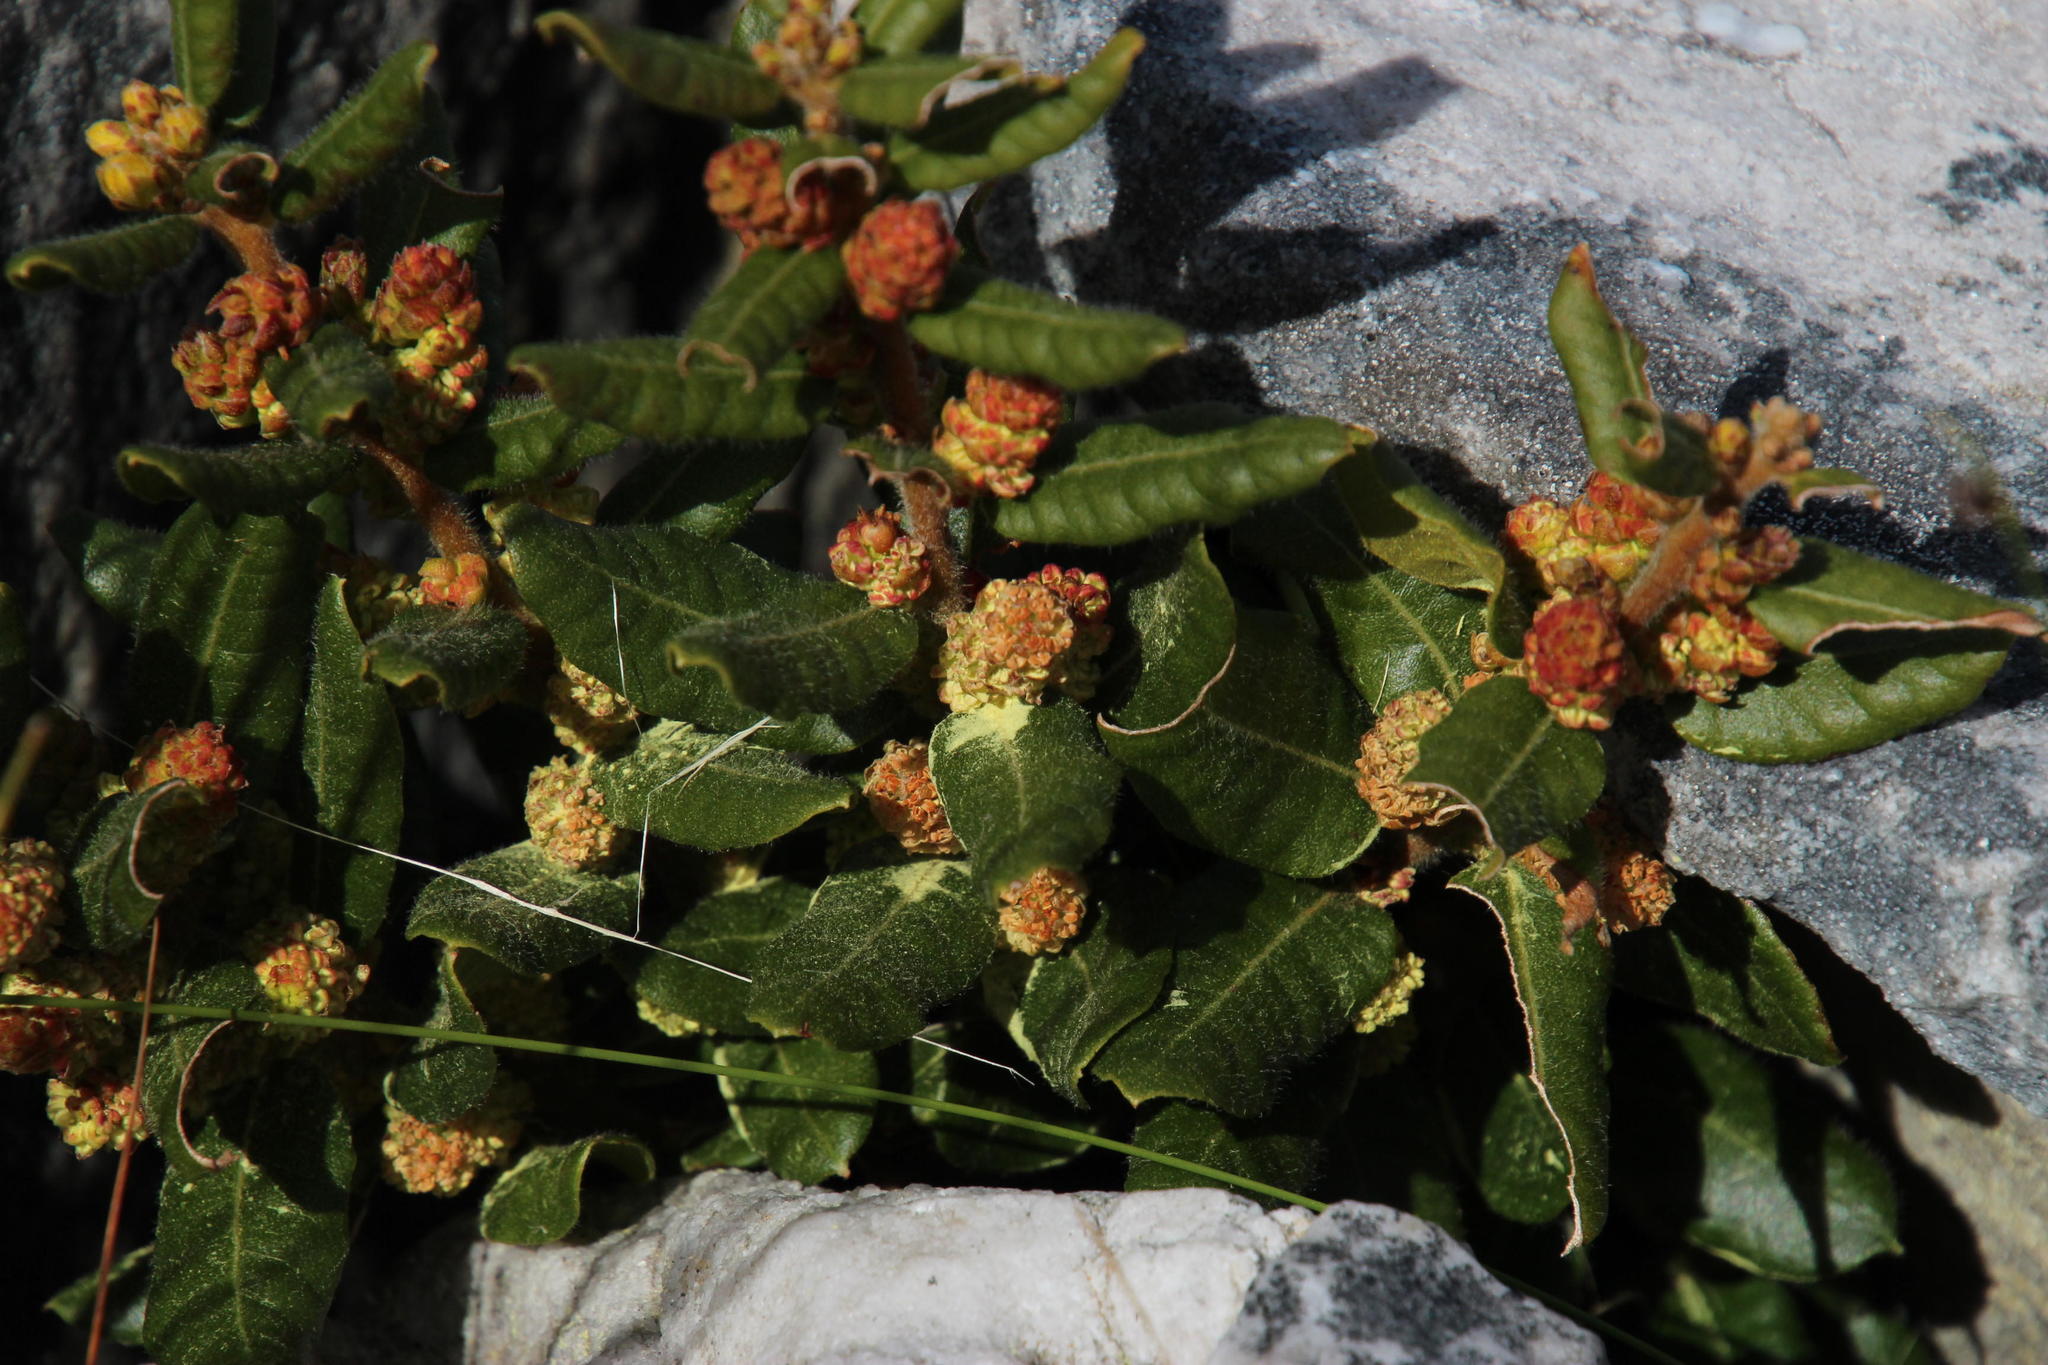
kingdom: Plantae
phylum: Tracheophyta
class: Magnoliopsida
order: Fagales
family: Myricaceae
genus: Morella
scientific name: Morella kraussiana
